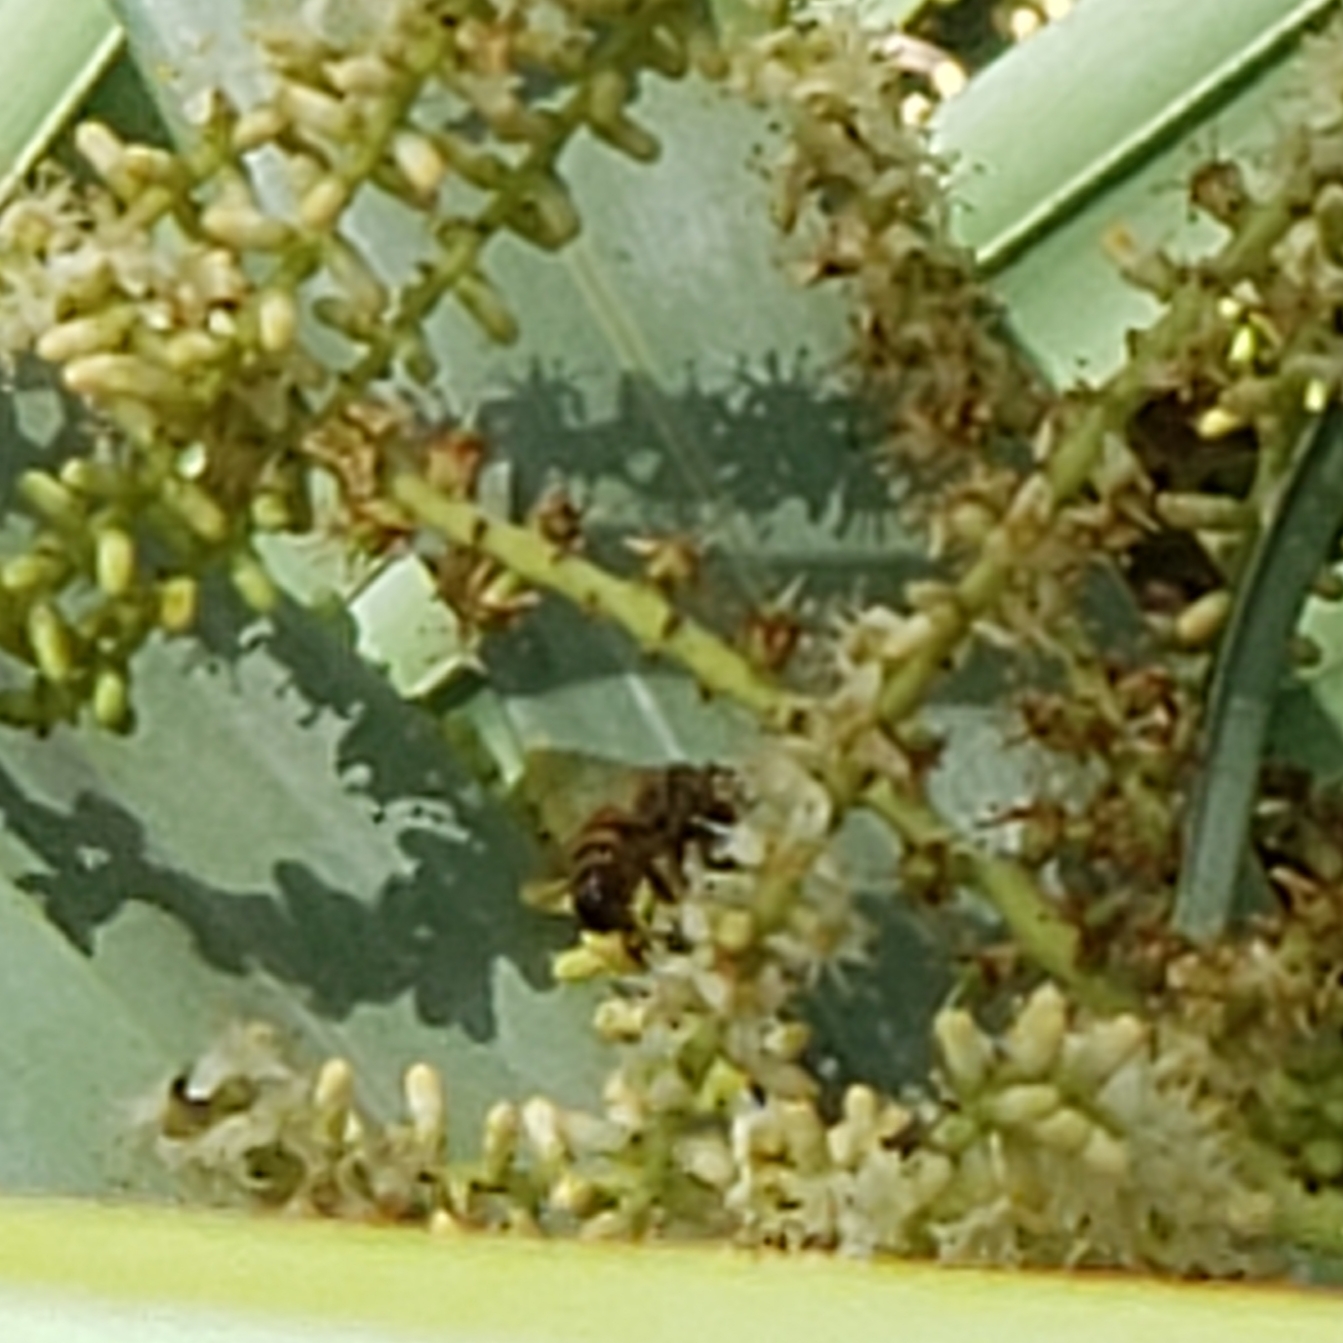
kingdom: Animalia
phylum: Arthropoda
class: Insecta
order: Hymenoptera
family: Apidae
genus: Apis
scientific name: Apis mellifera
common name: Honey bee
